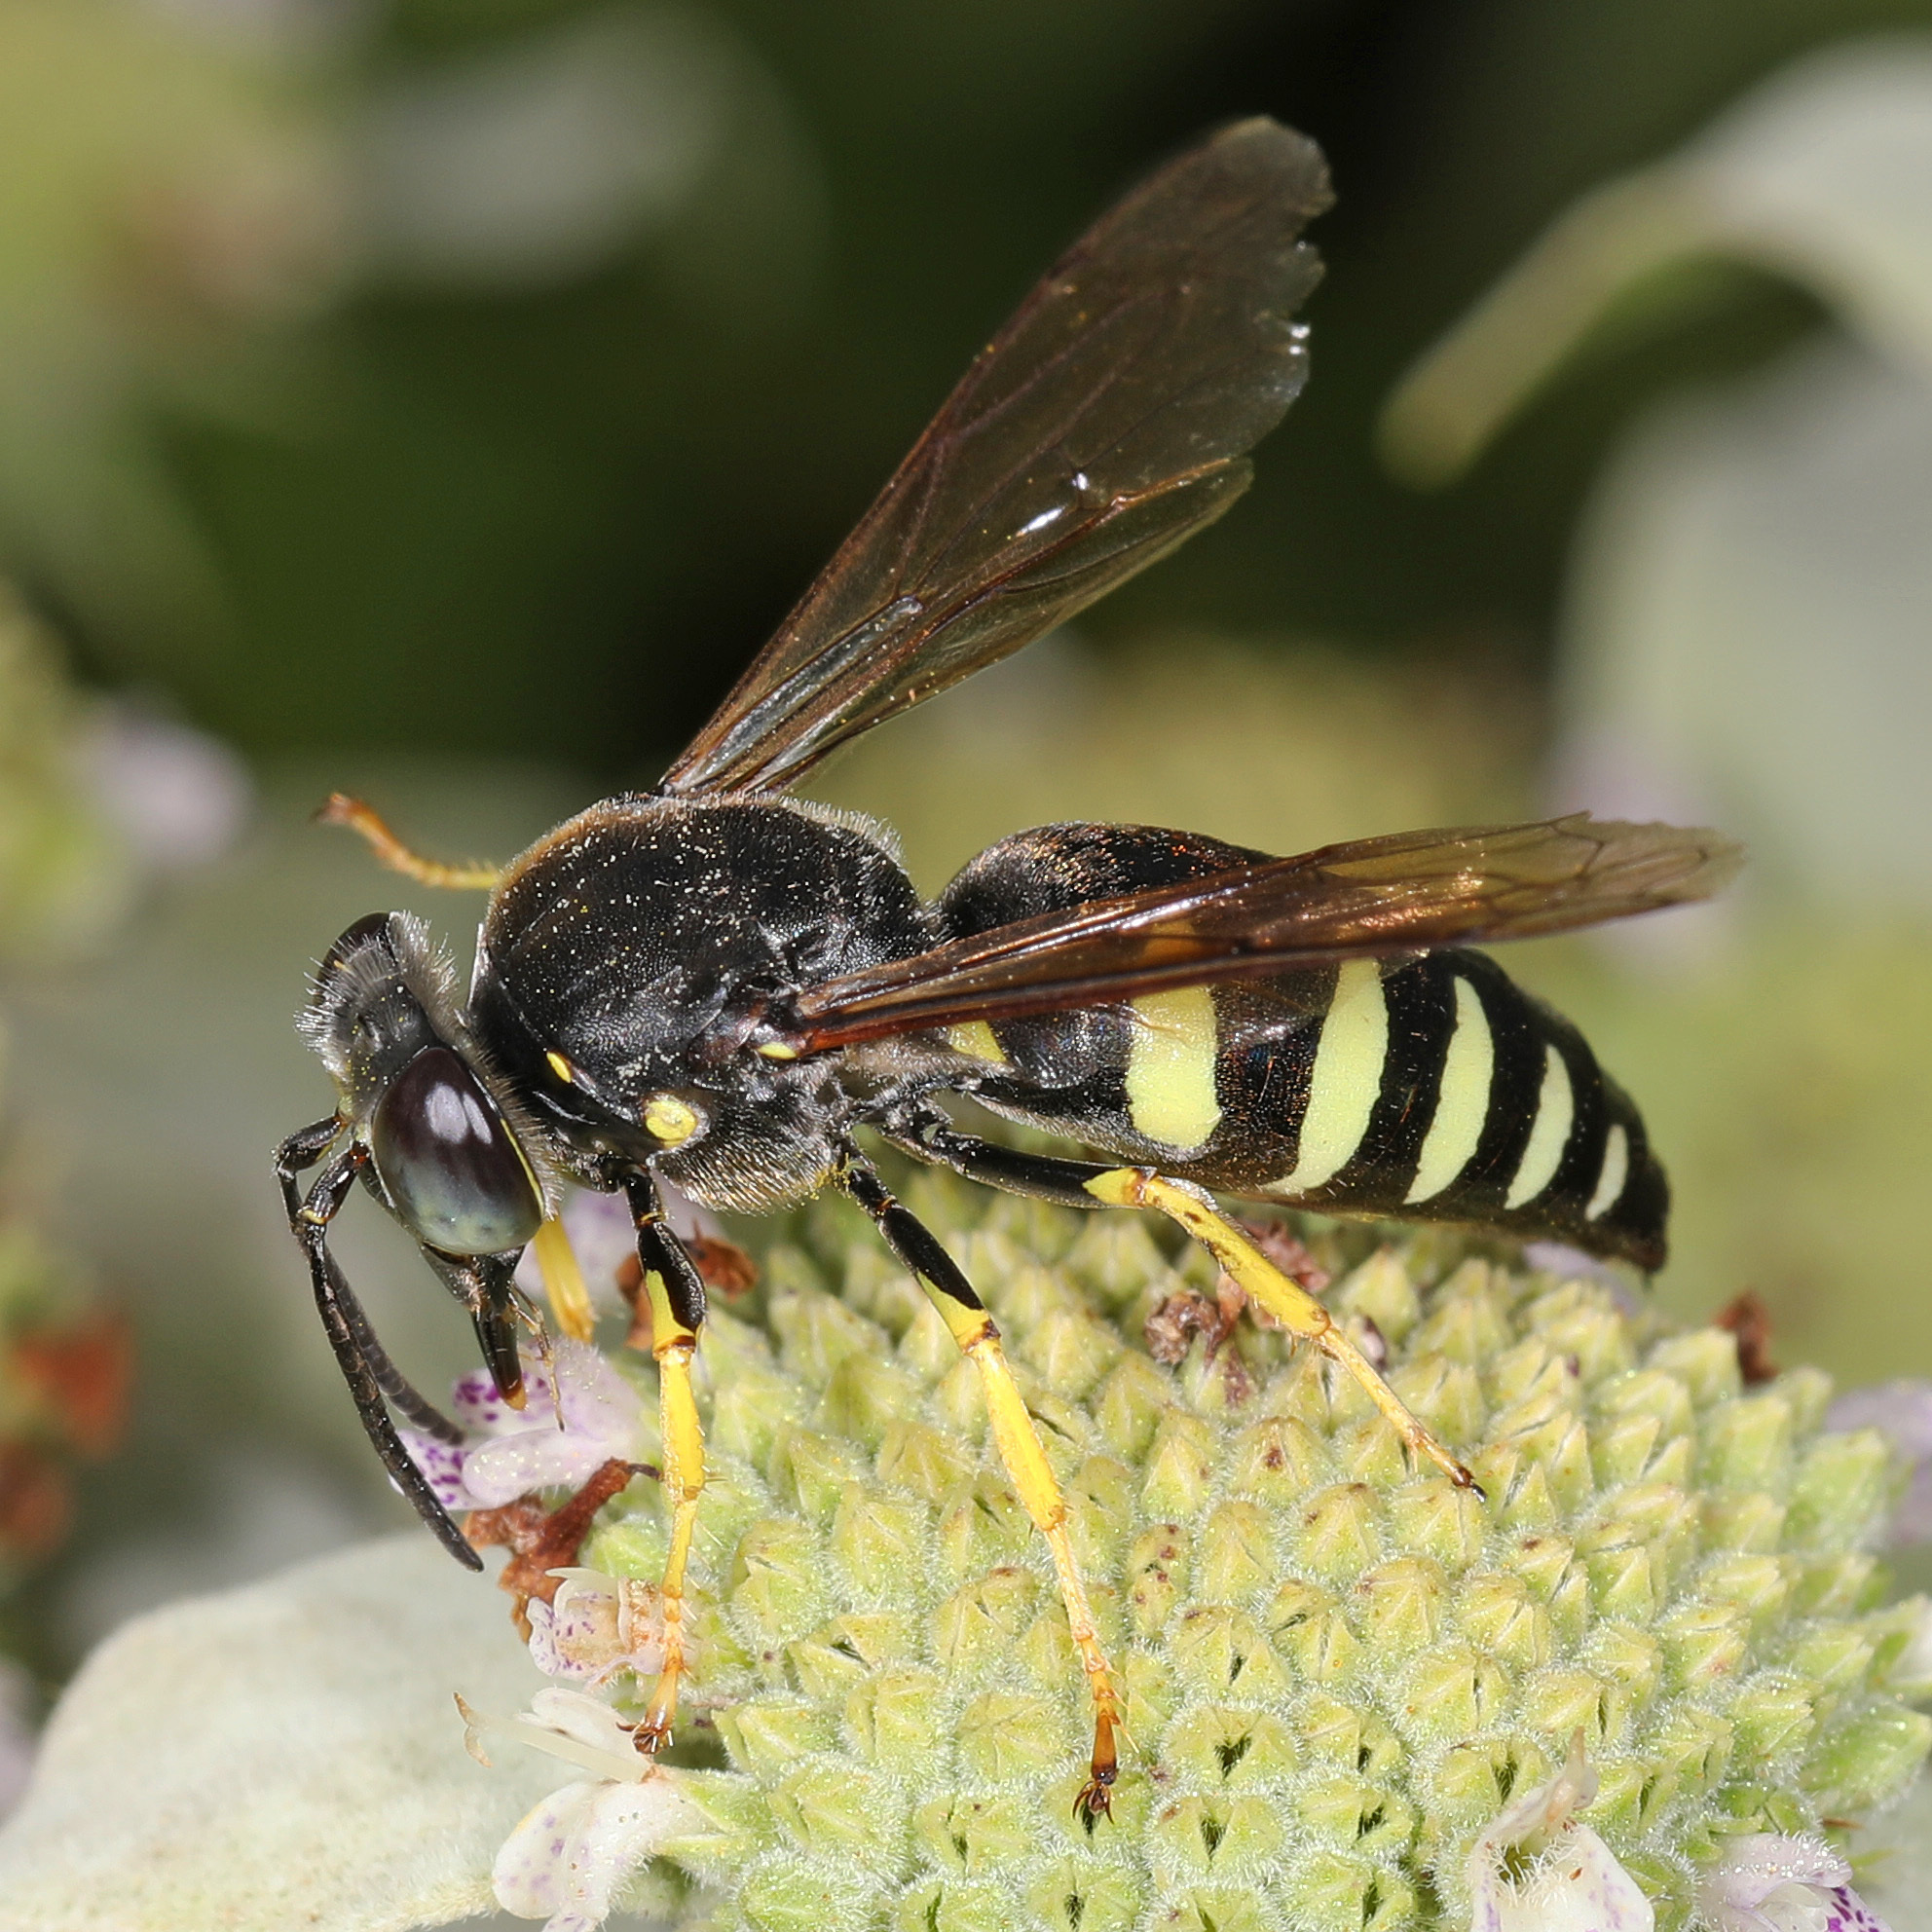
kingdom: Animalia
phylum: Arthropoda
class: Insecta
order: Hymenoptera
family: Crabronidae
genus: Bicyrtes
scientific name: Bicyrtes quadrifasciatus
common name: Four-banded stink bug hunter wasp
